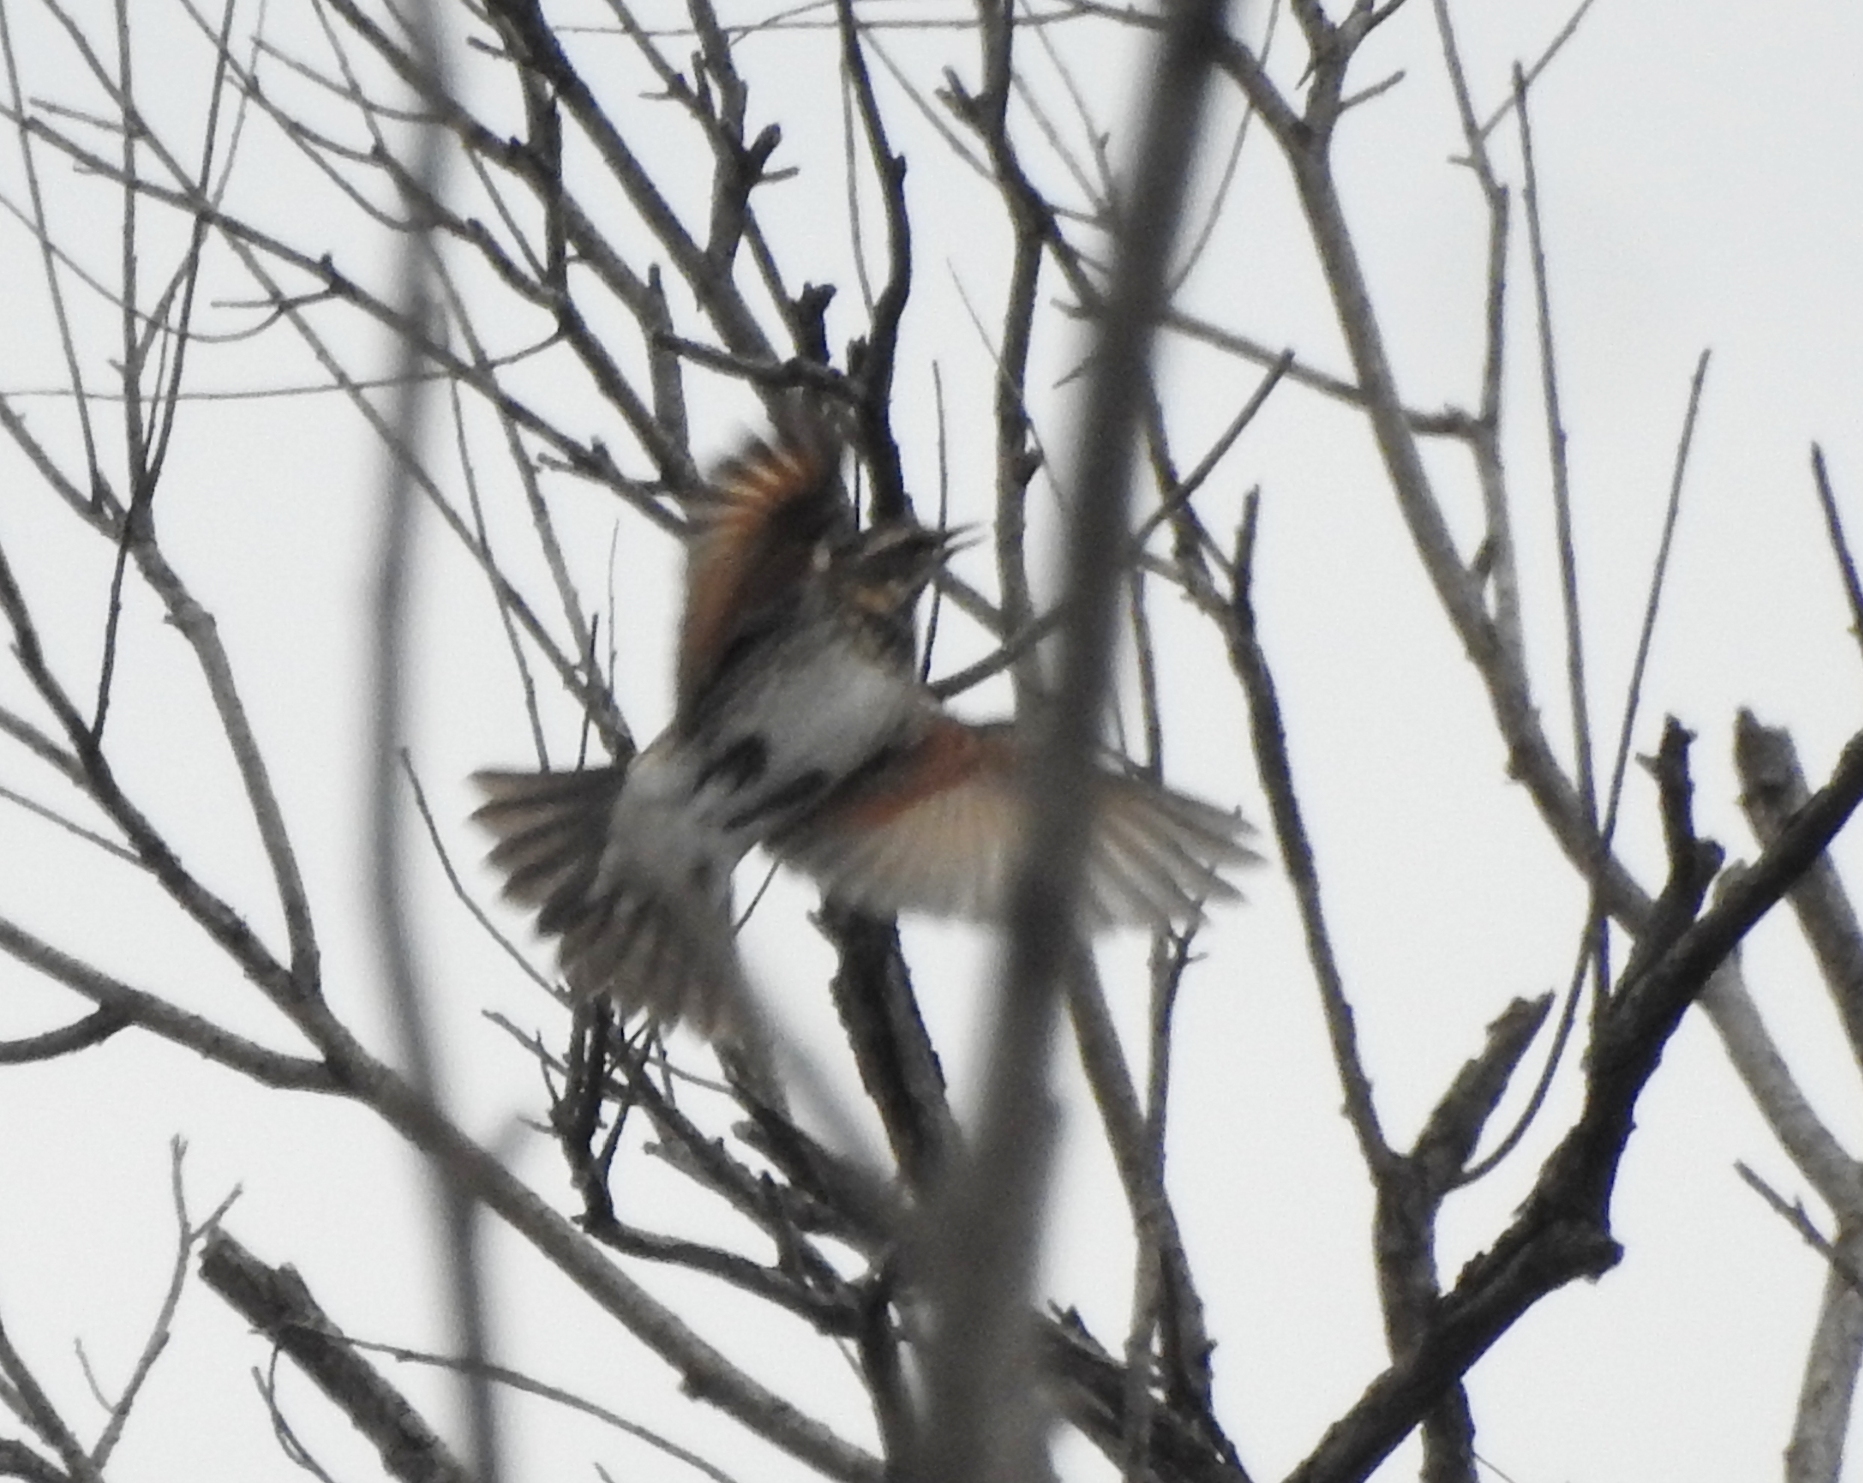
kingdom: Animalia
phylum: Chordata
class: Aves
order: Passeriformes
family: Turdidae
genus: Turdus
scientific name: Turdus eunomus
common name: Dusky thrush
